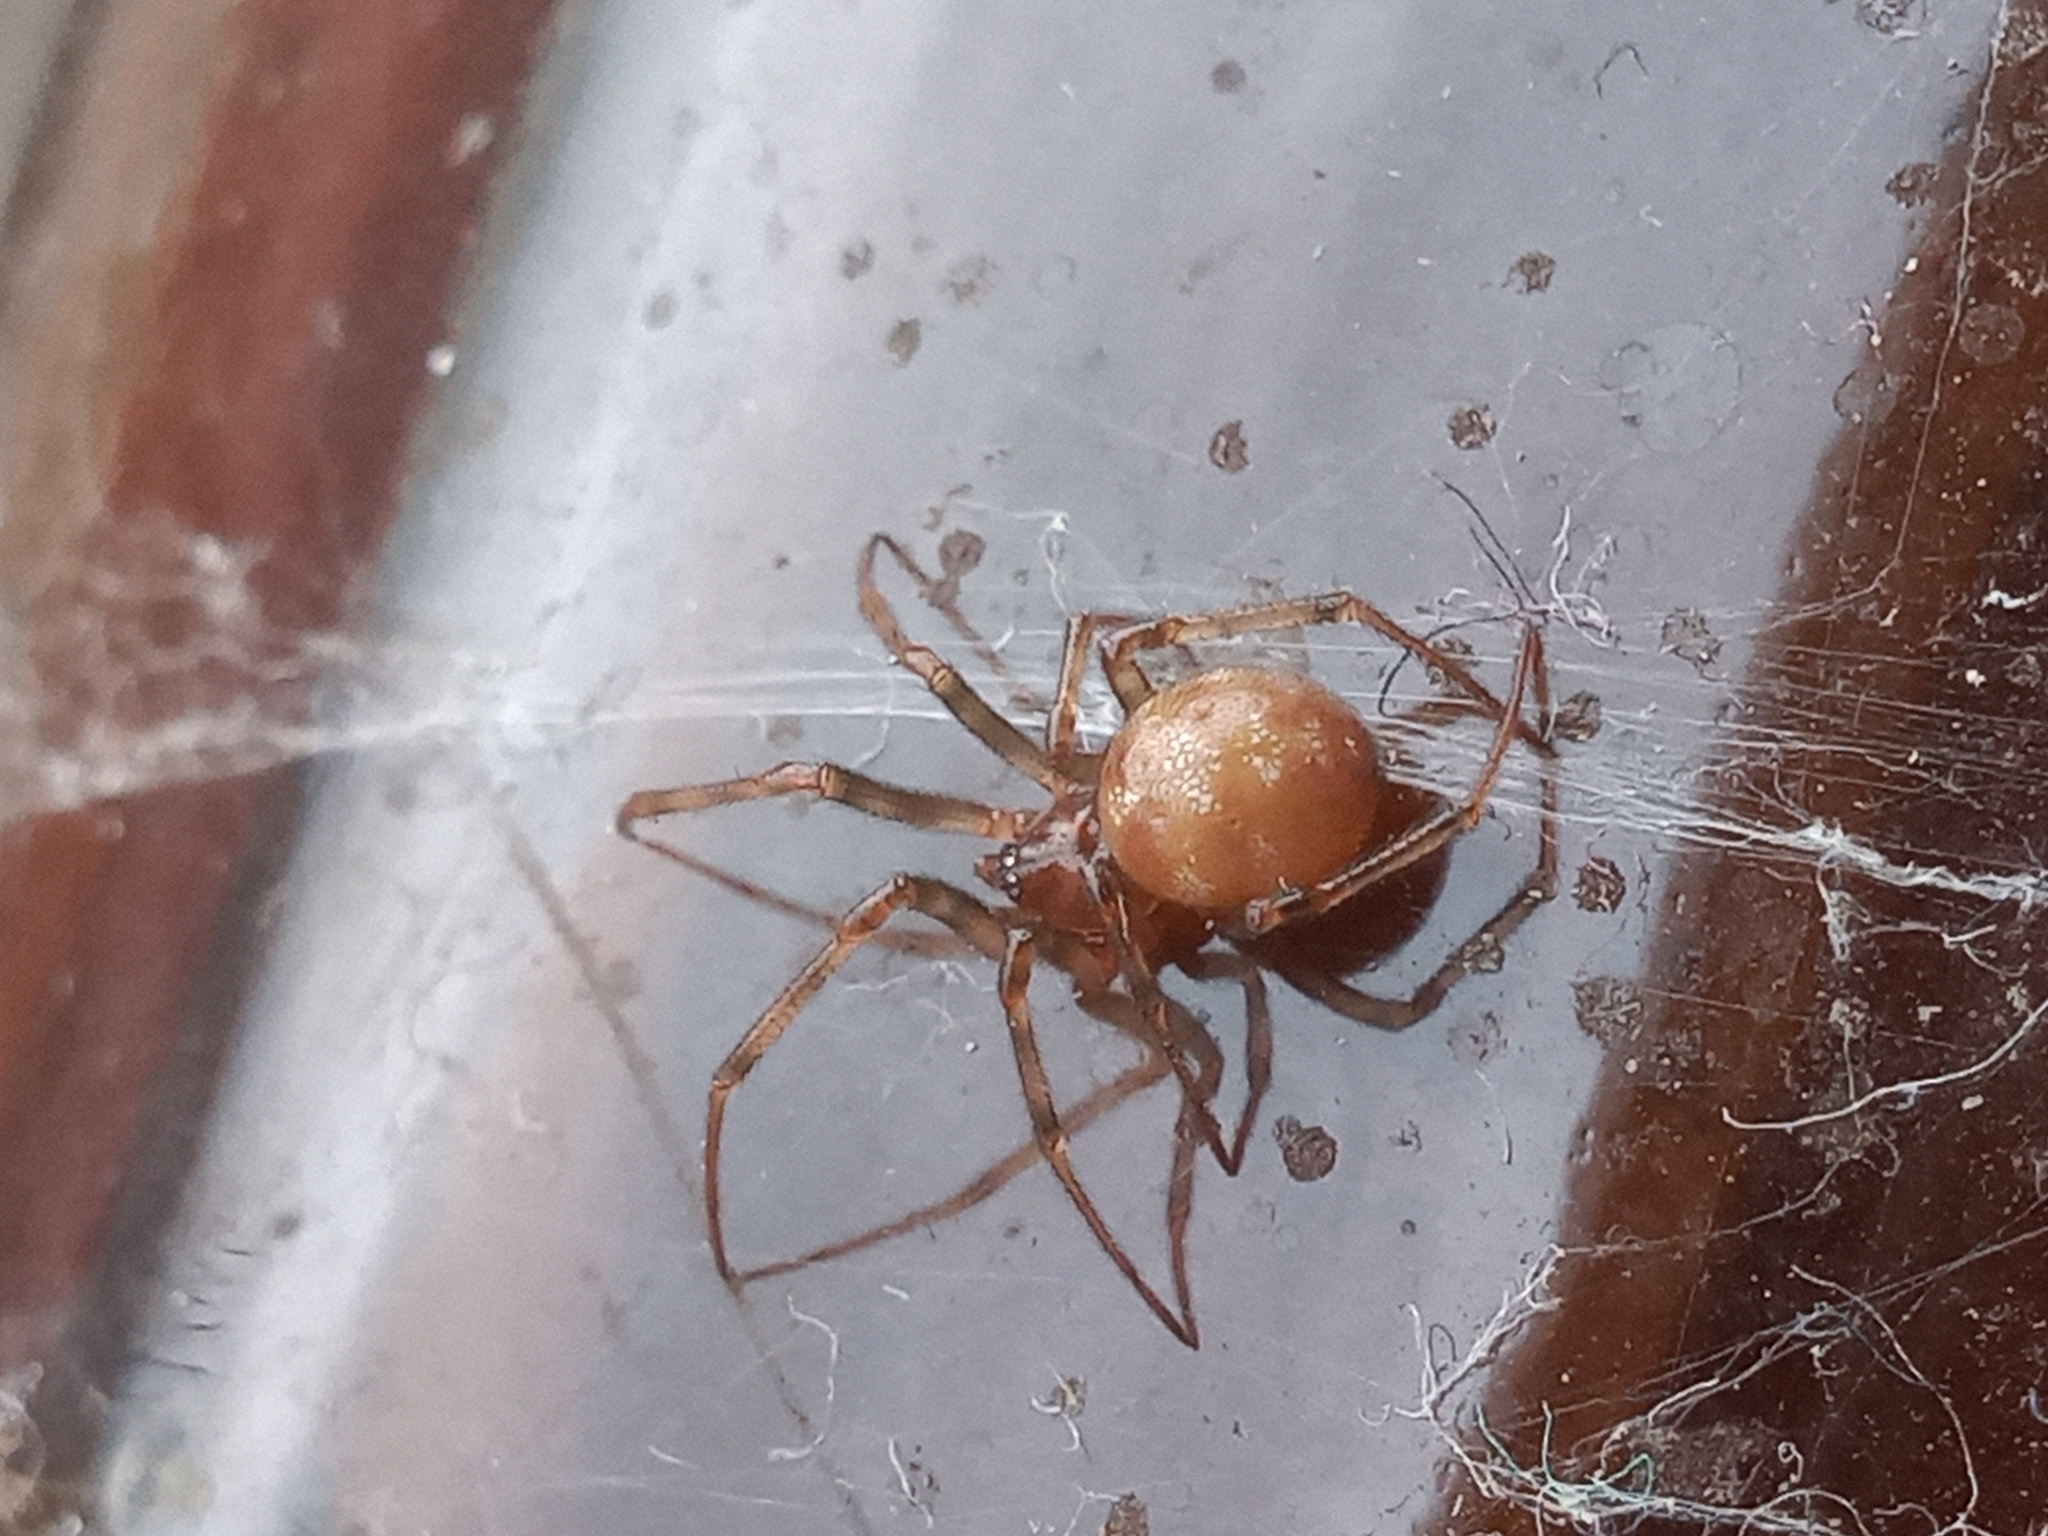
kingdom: Animalia
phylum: Arthropoda
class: Arachnida
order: Araneae
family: Theridiidae
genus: Steatoda
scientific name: Steatoda triangulosa
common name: Triangulate bud spider
